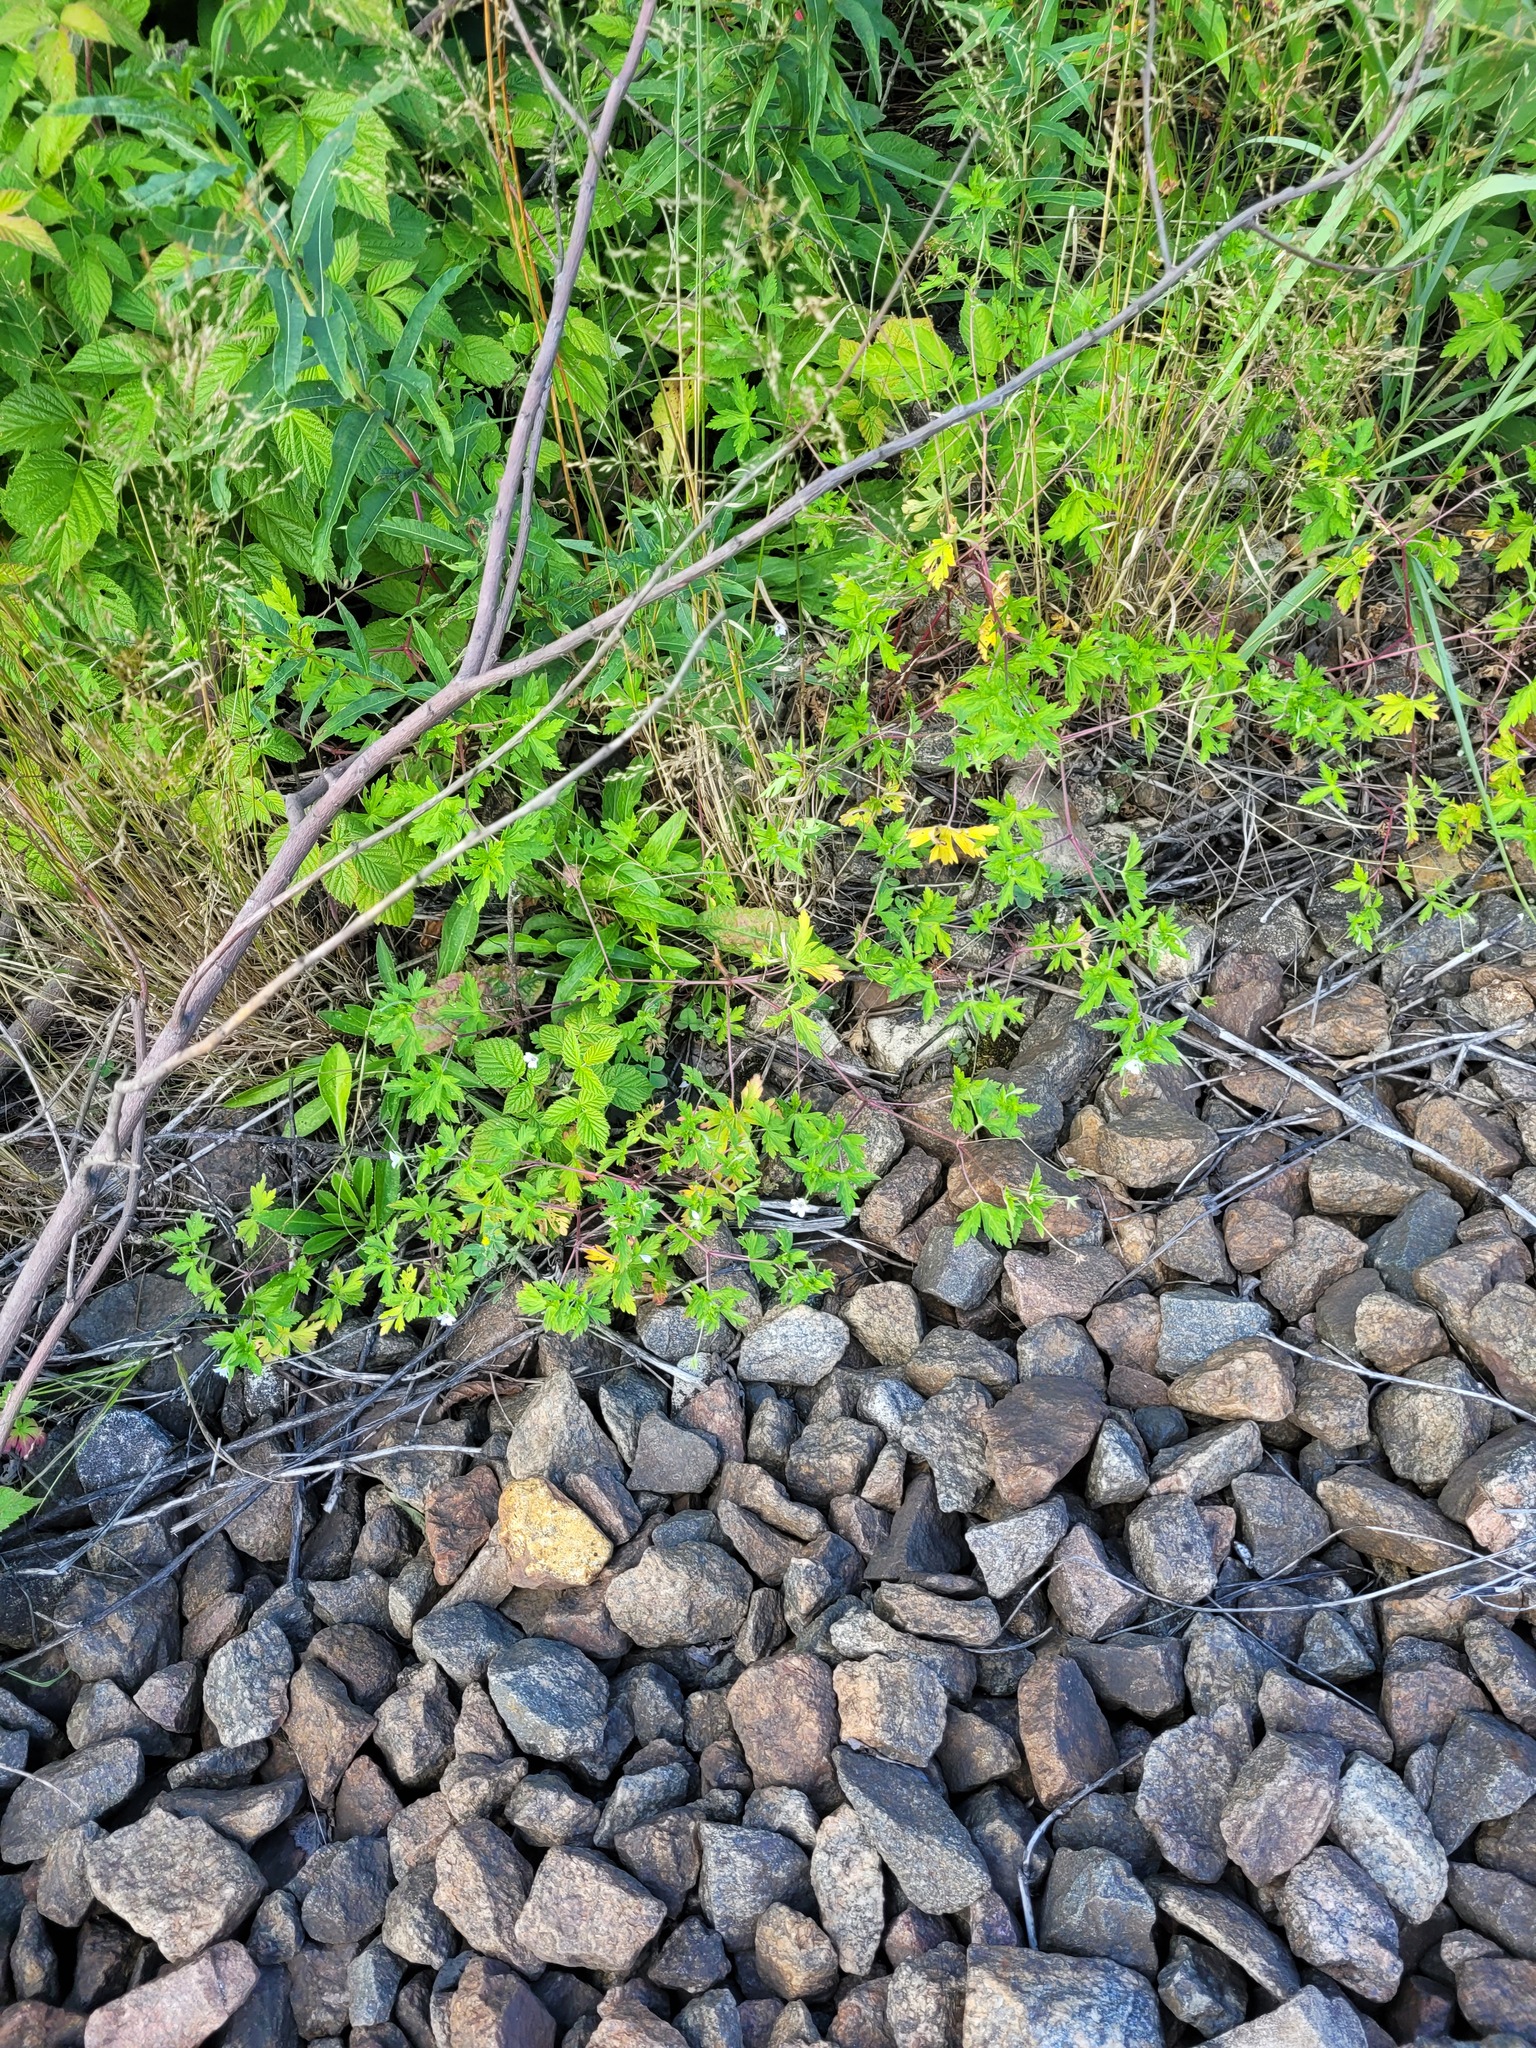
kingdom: Plantae
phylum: Tracheophyta
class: Magnoliopsida
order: Geraniales
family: Geraniaceae
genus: Geranium
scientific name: Geranium sibiricum
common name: Siberian crane's-bill
